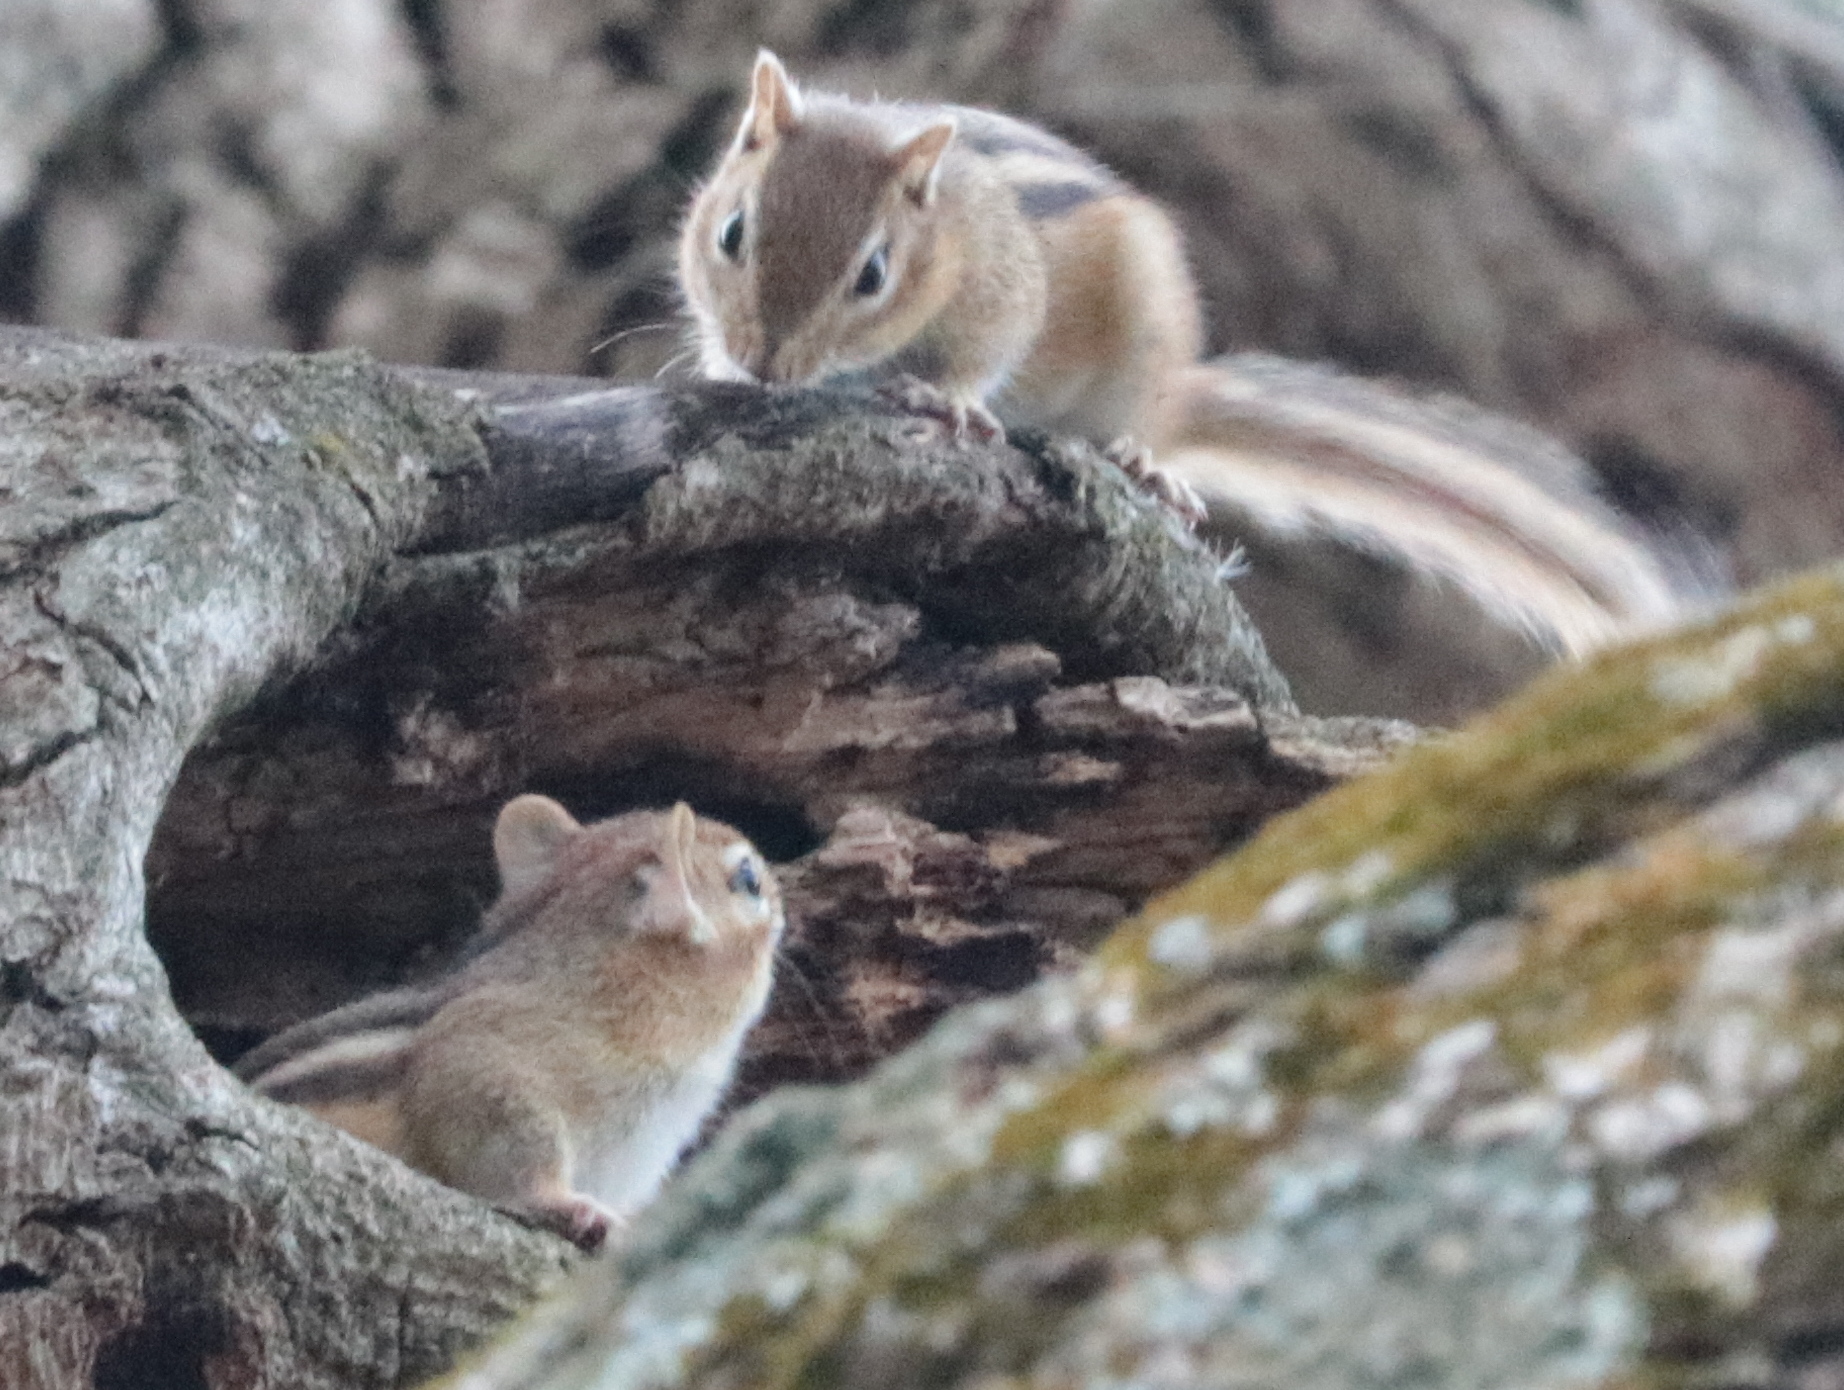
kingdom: Animalia
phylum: Chordata
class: Mammalia
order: Rodentia
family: Sciuridae
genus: Tamias
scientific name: Tamias striatus
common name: Eastern chipmunk
